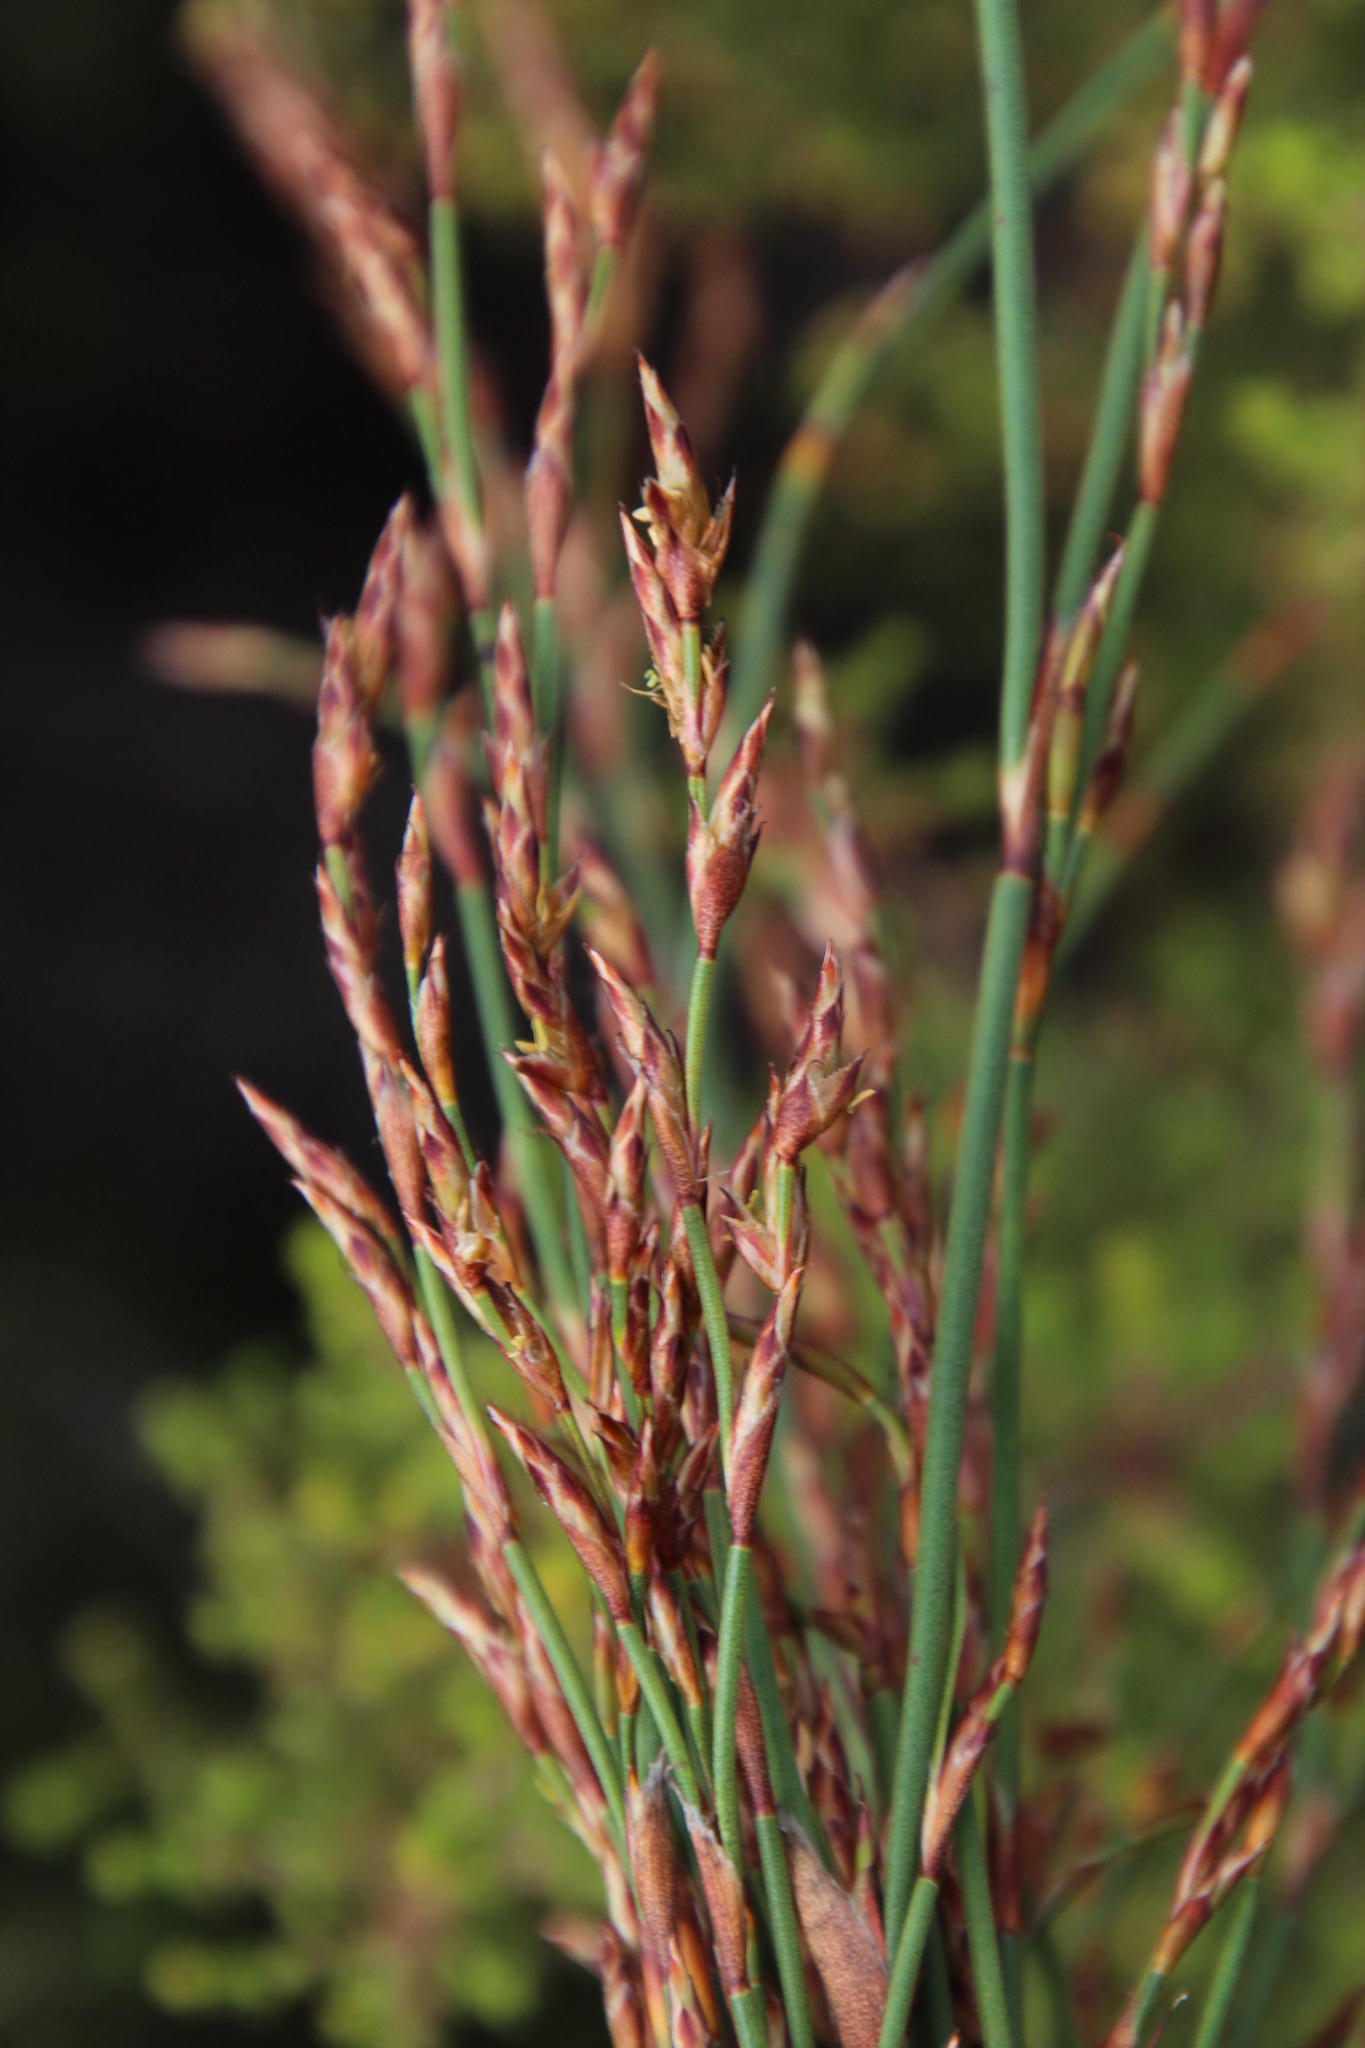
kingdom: Plantae
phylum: Tracheophyta
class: Liliopsida
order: Poales
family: Restionaceae
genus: Restio
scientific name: Restio rigoratus
